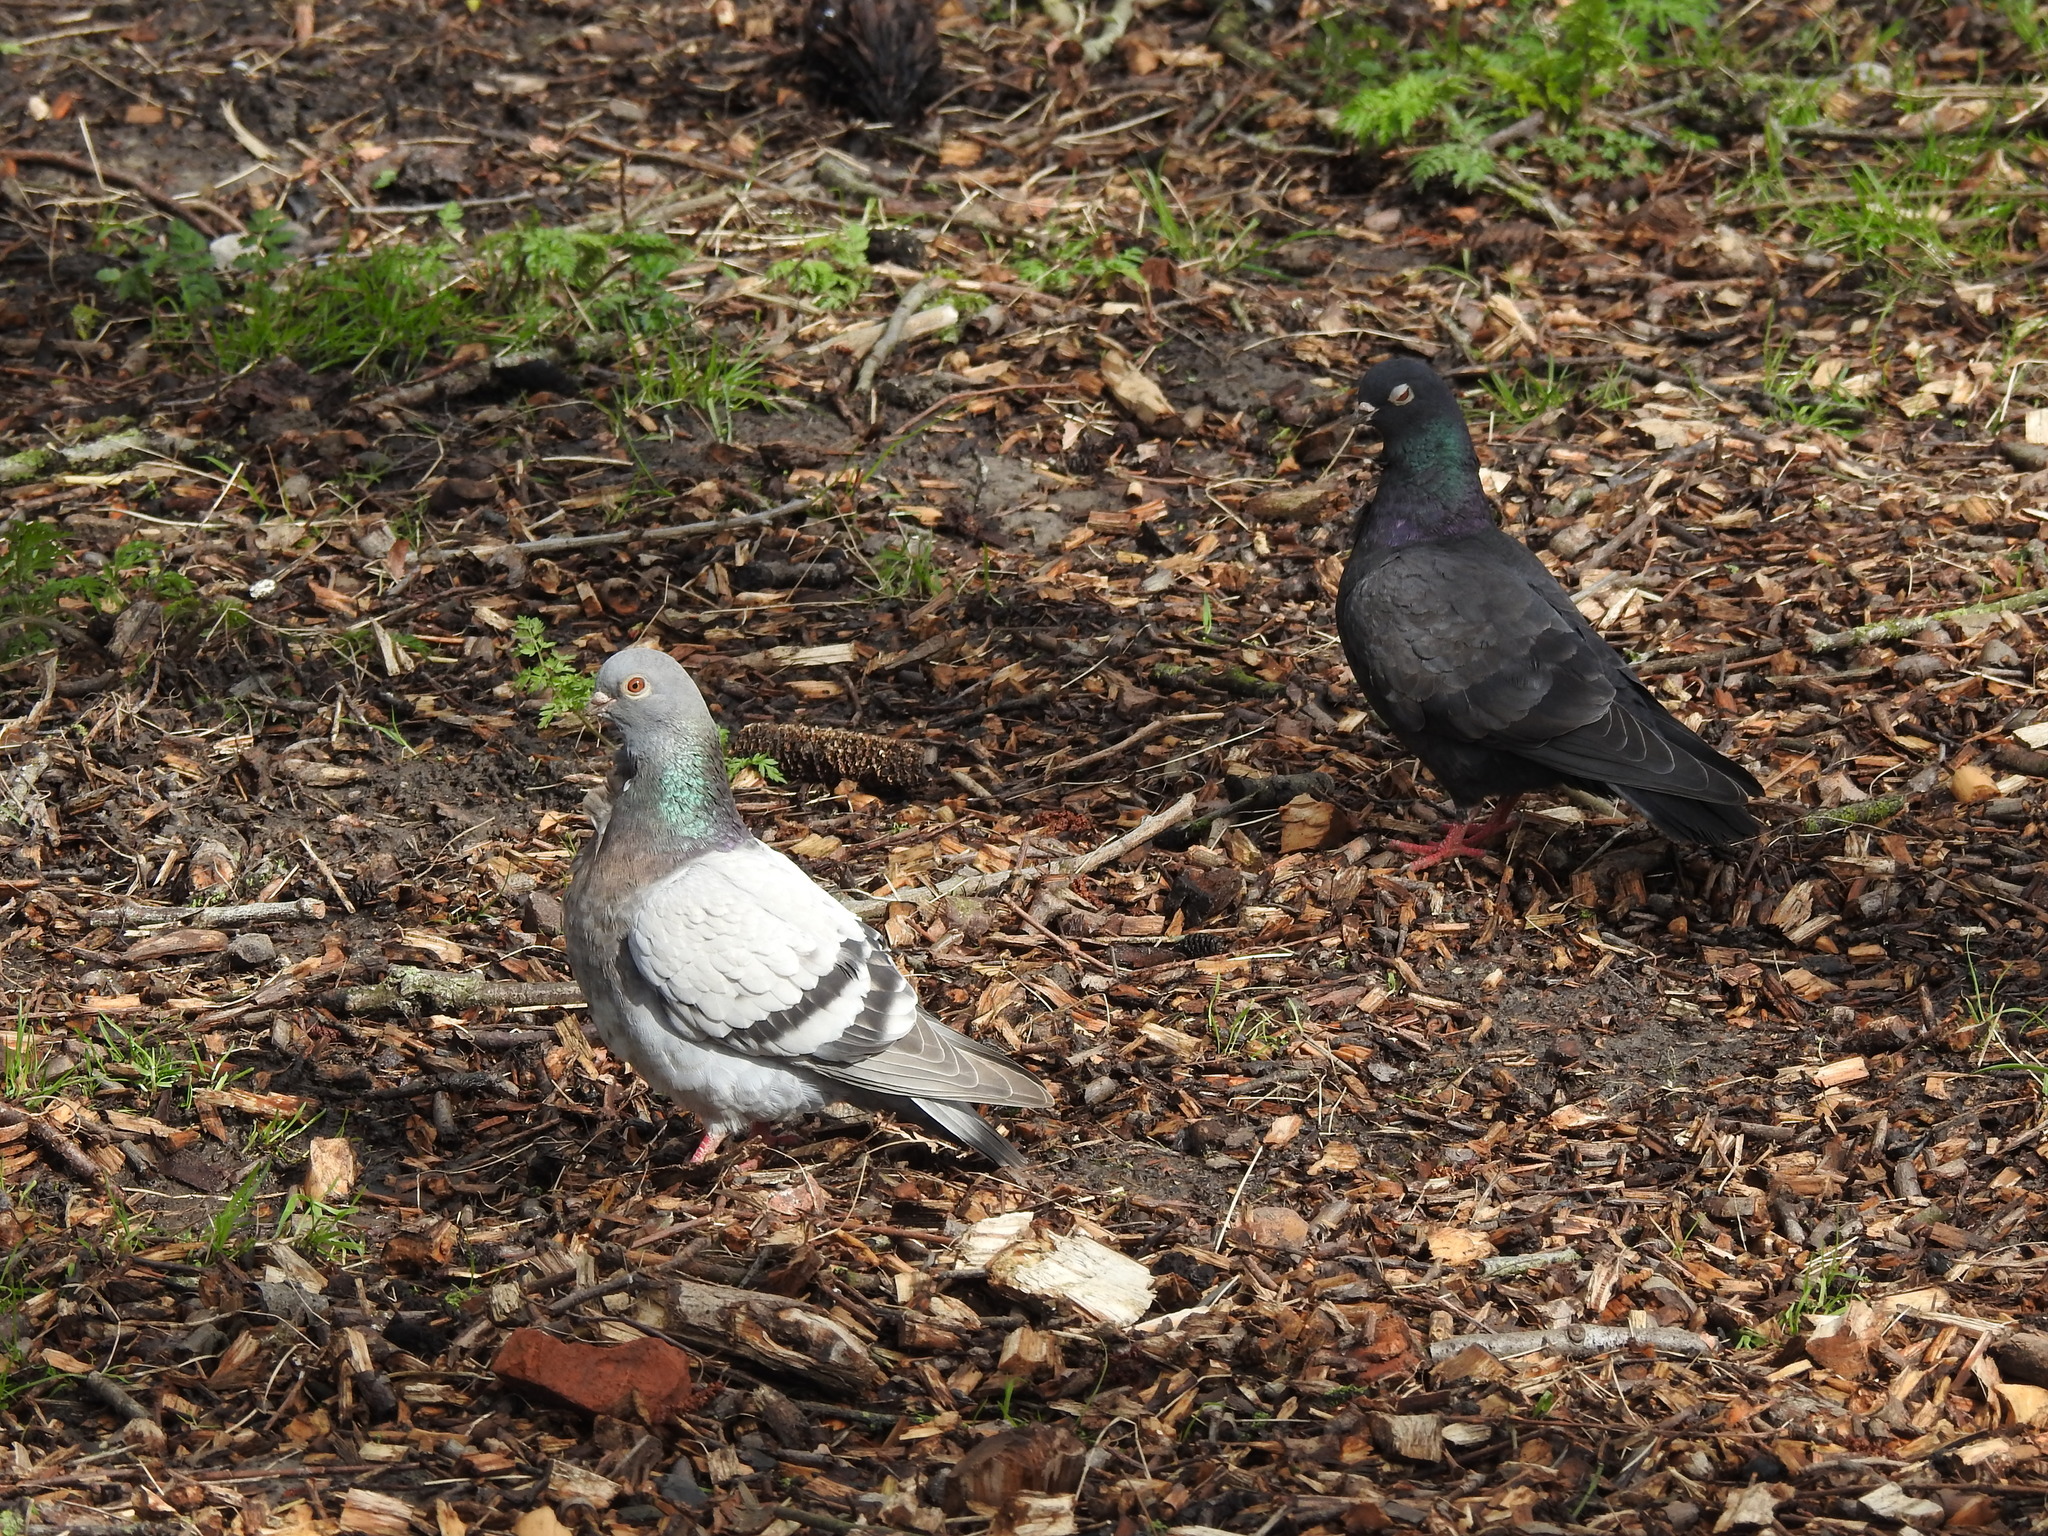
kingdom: Animalia
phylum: Chordata
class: Aves
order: Columbiformes
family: Columbidae
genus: Columba
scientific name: Columba livia
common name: Rock pigeon
